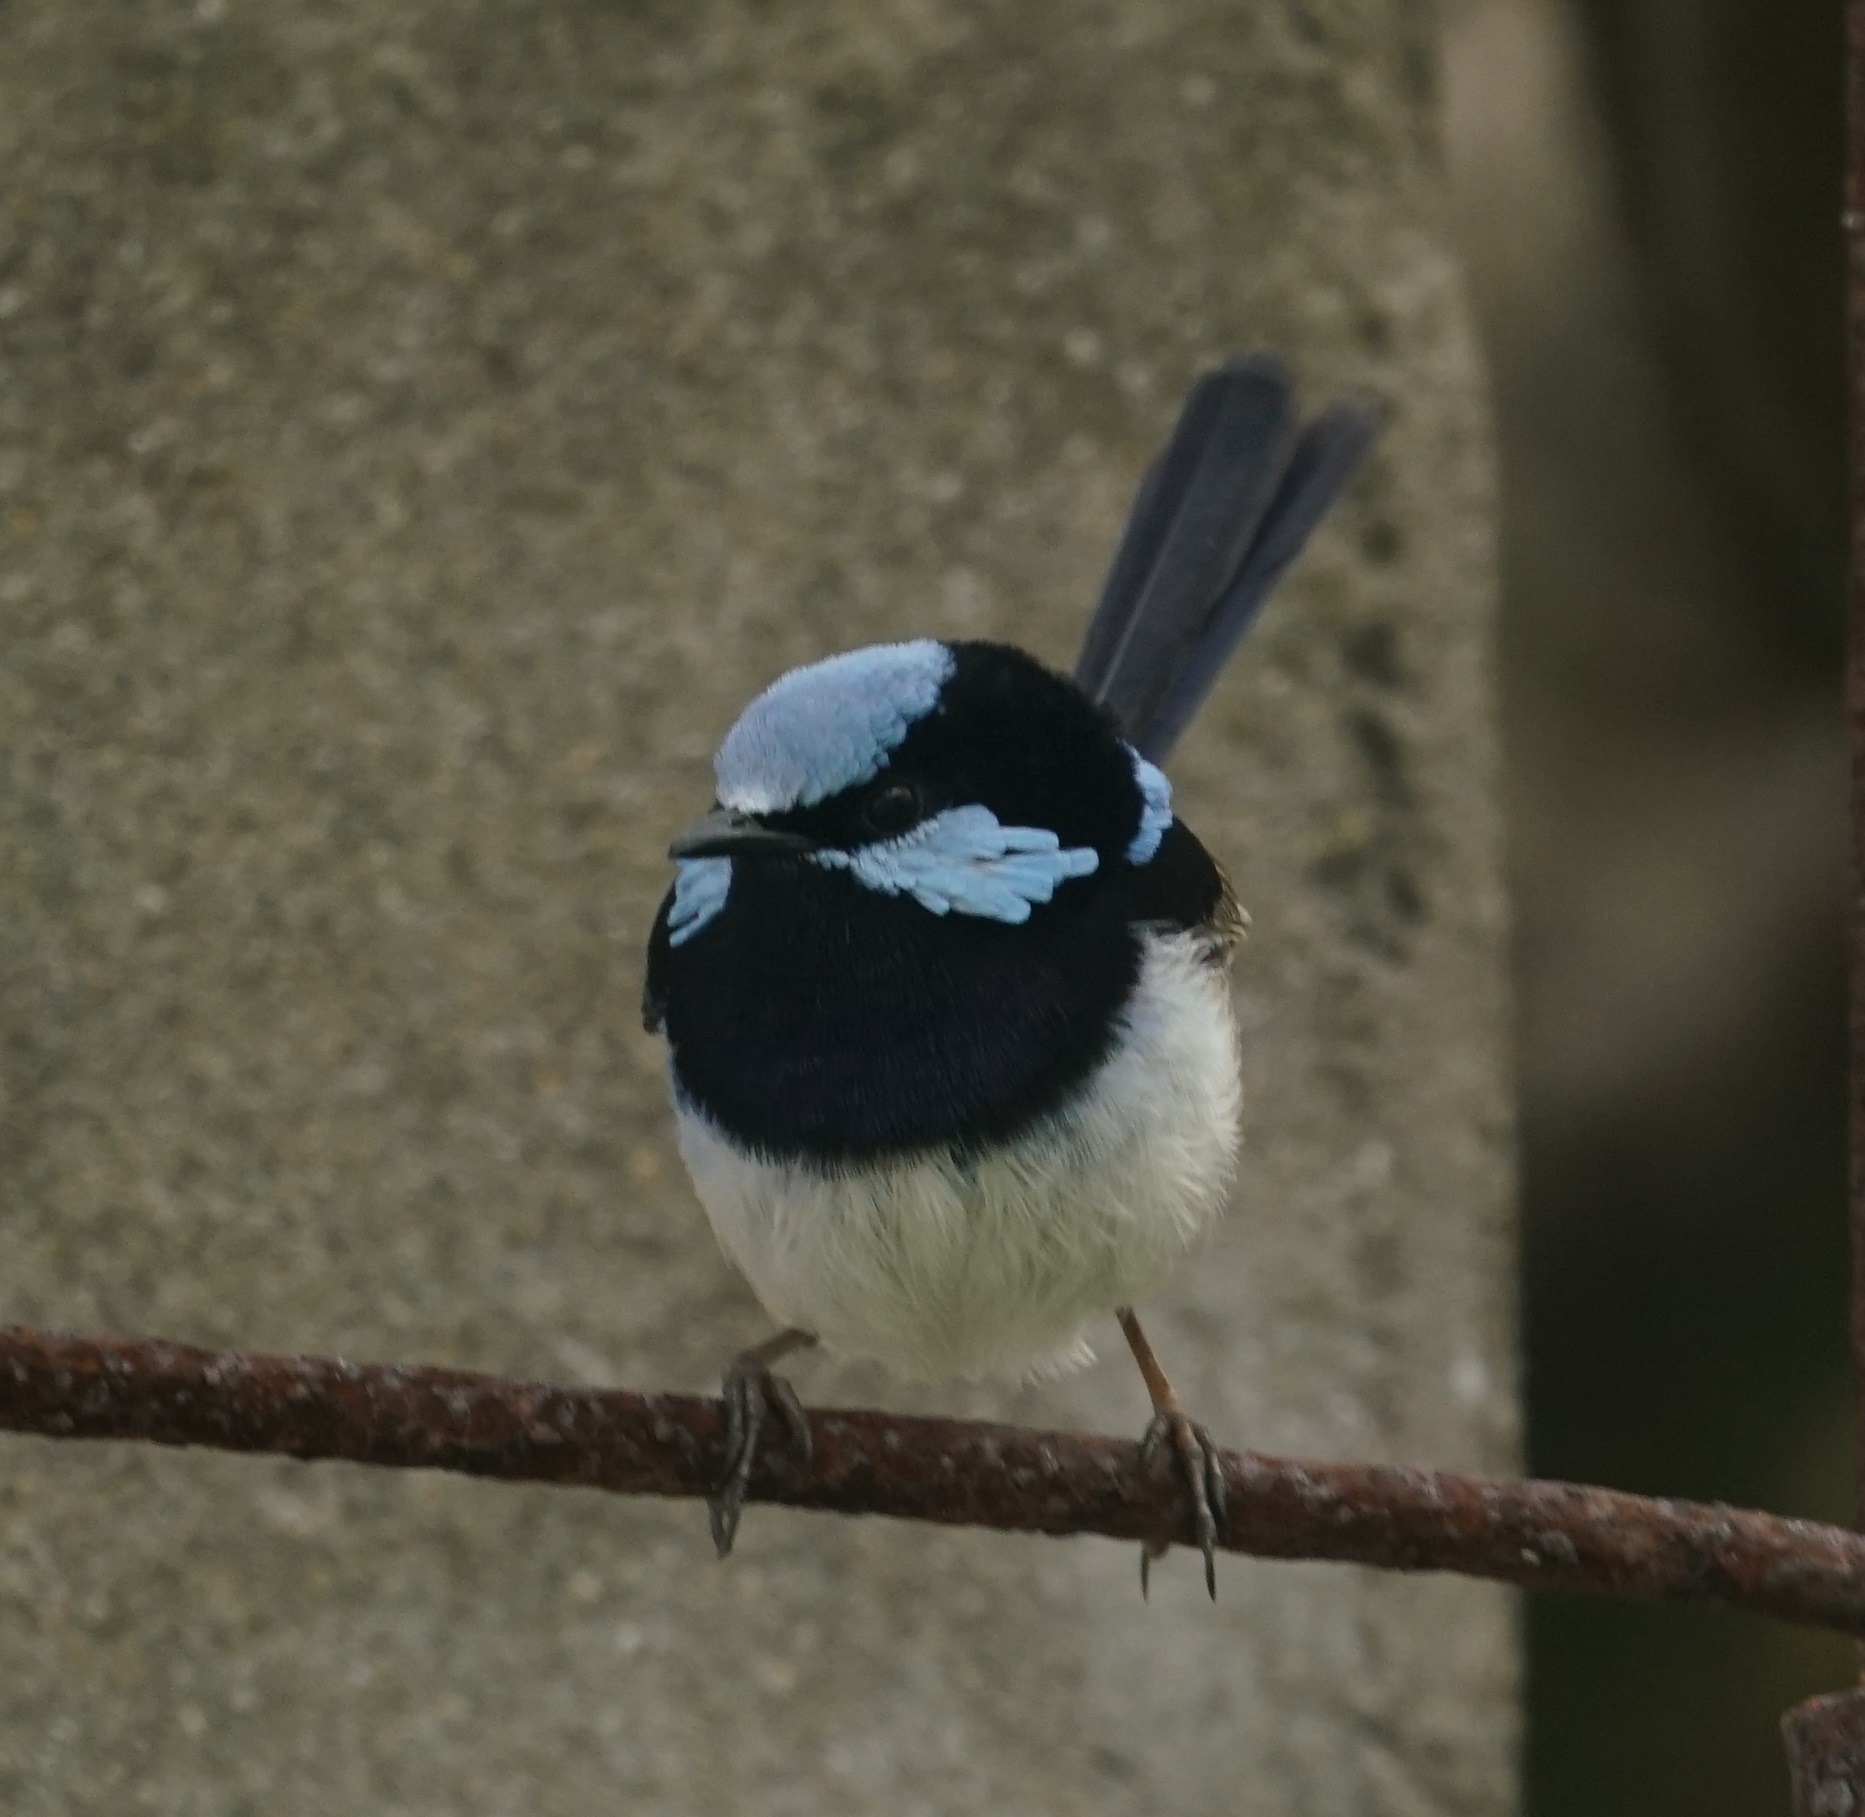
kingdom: Animalia
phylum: Chordata
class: Aves
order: Passeriformes
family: Maluridae
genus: Malurus
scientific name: Malurus cyaneus
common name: Superb fairywren
